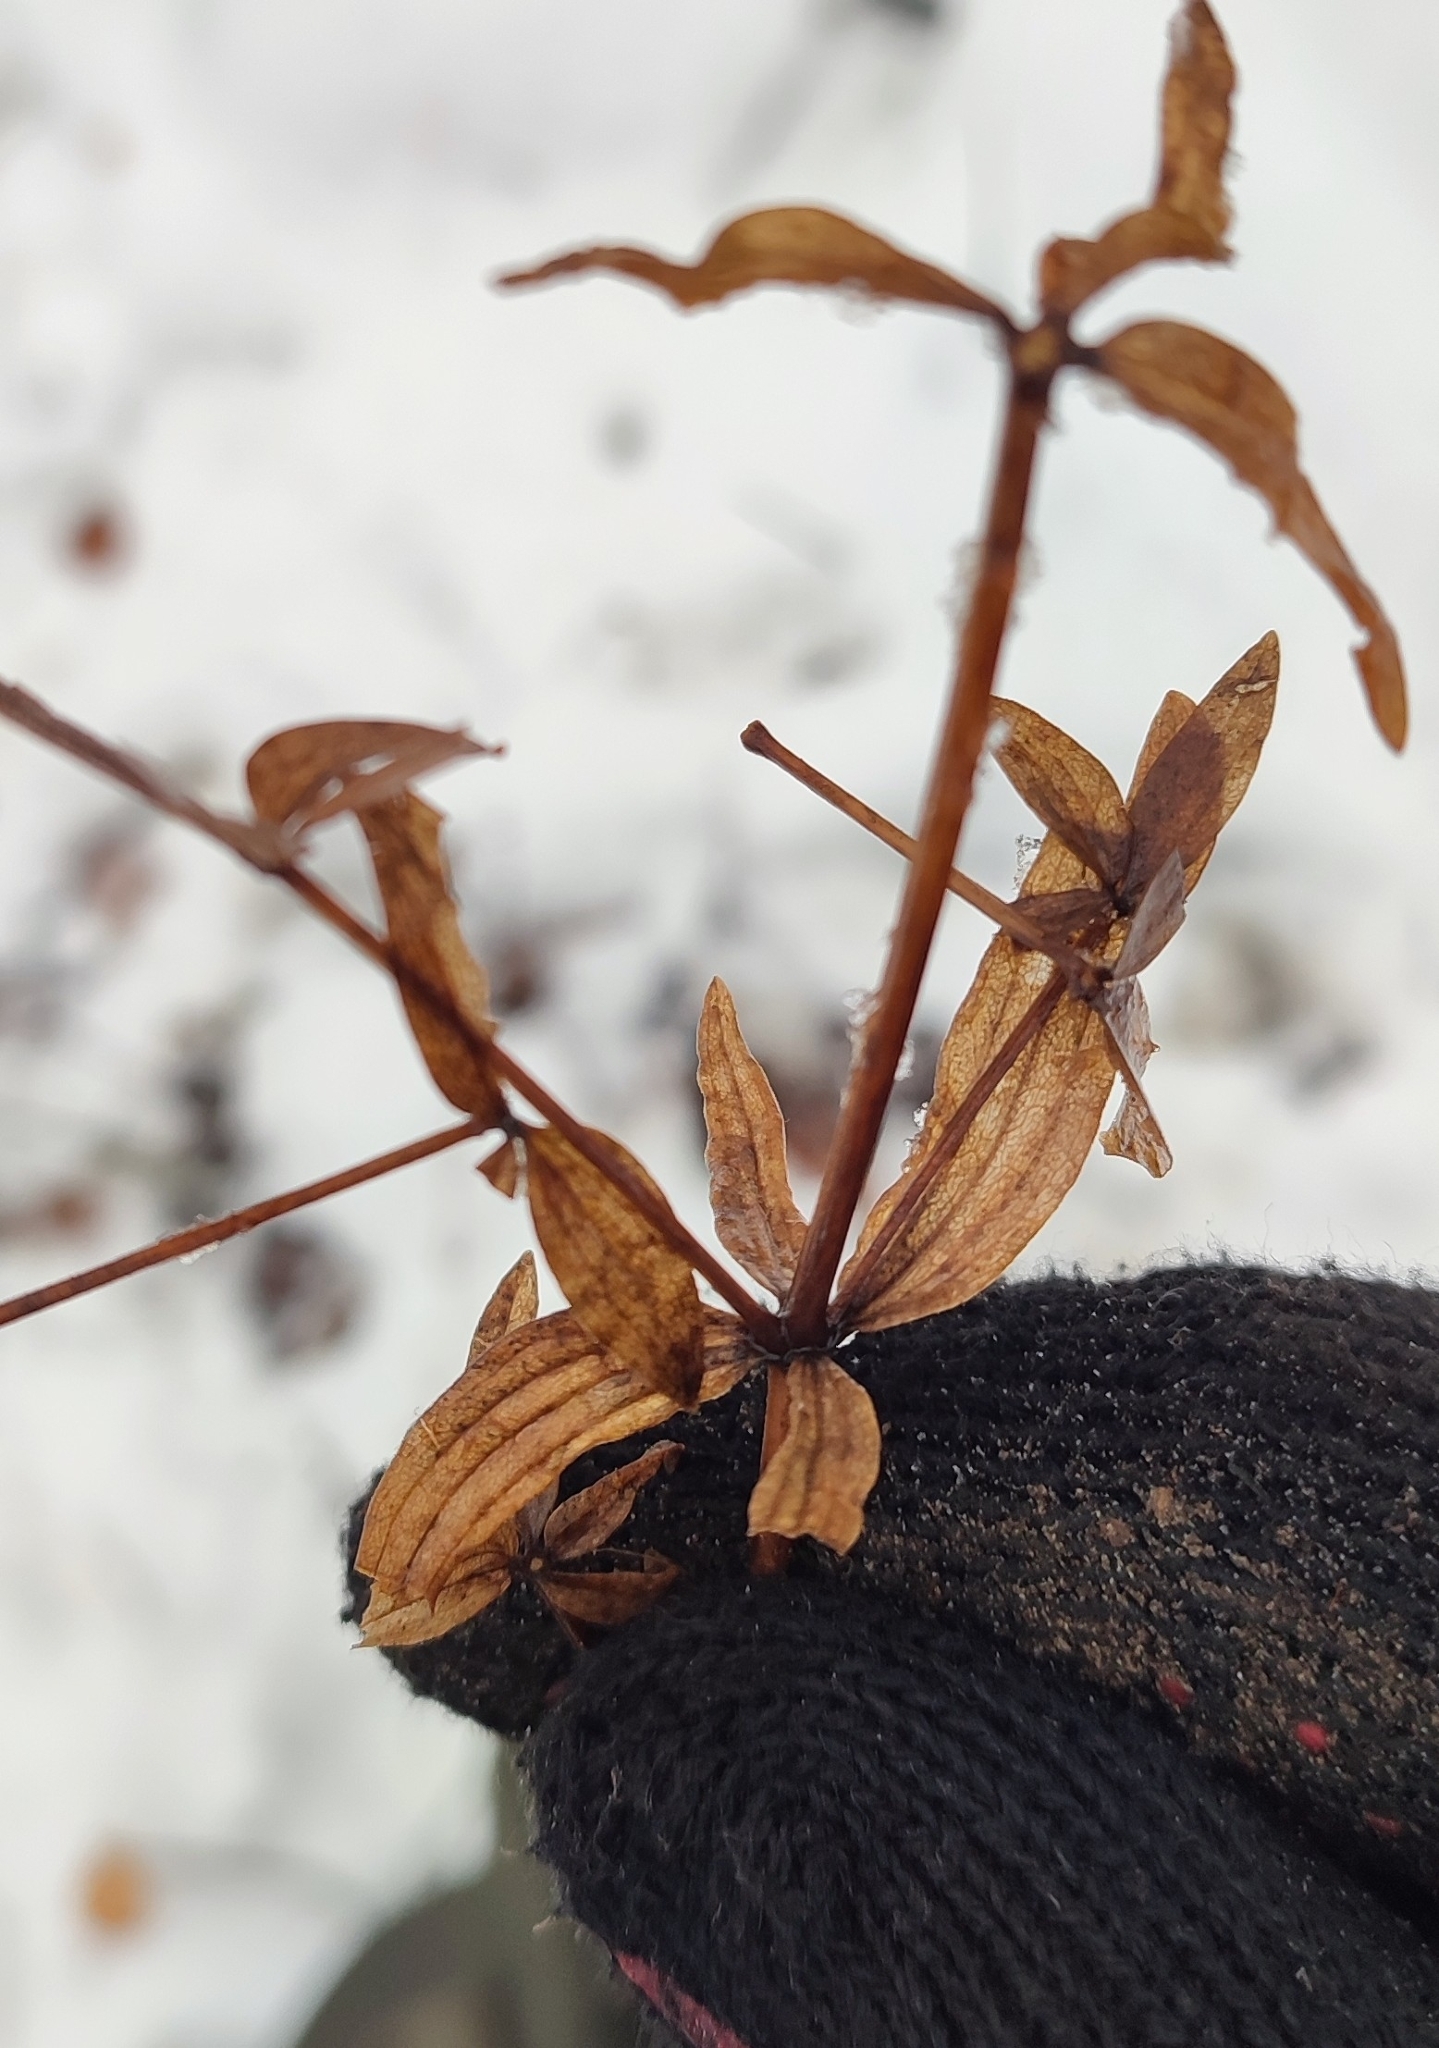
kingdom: Plantae
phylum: Tracheophyta
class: Magnoliopsida
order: Gentianales
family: Rubiaceae
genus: Galium
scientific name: Galium boreale
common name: Northern bedstraw
